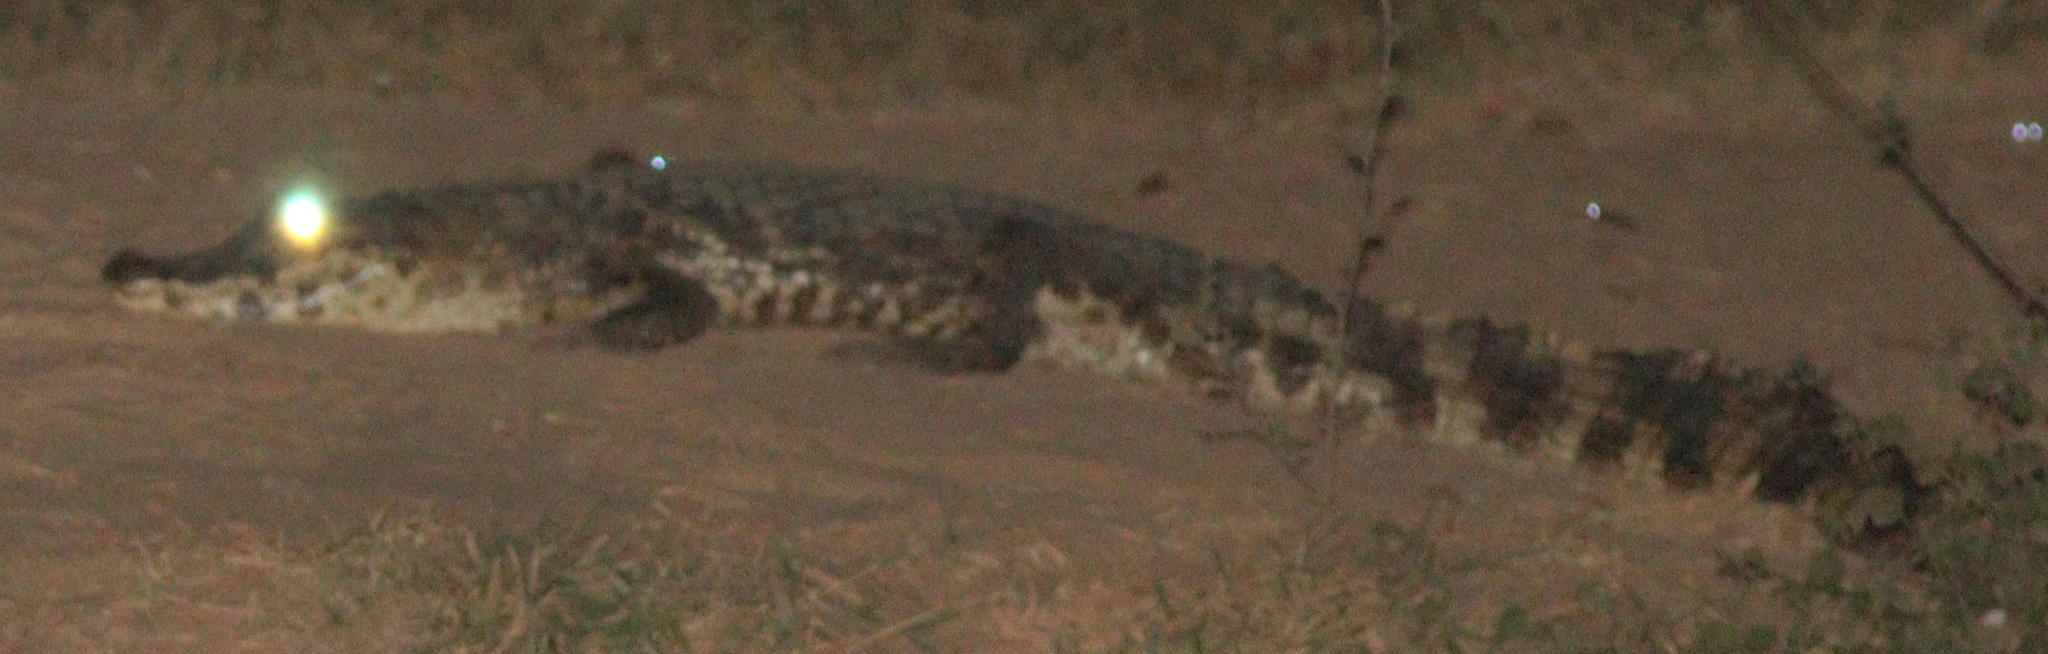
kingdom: Animalia
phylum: Chordata
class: Crocodylia
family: Alligatoridae
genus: Caiman
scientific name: Caiman yacare
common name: Yacare caiman
